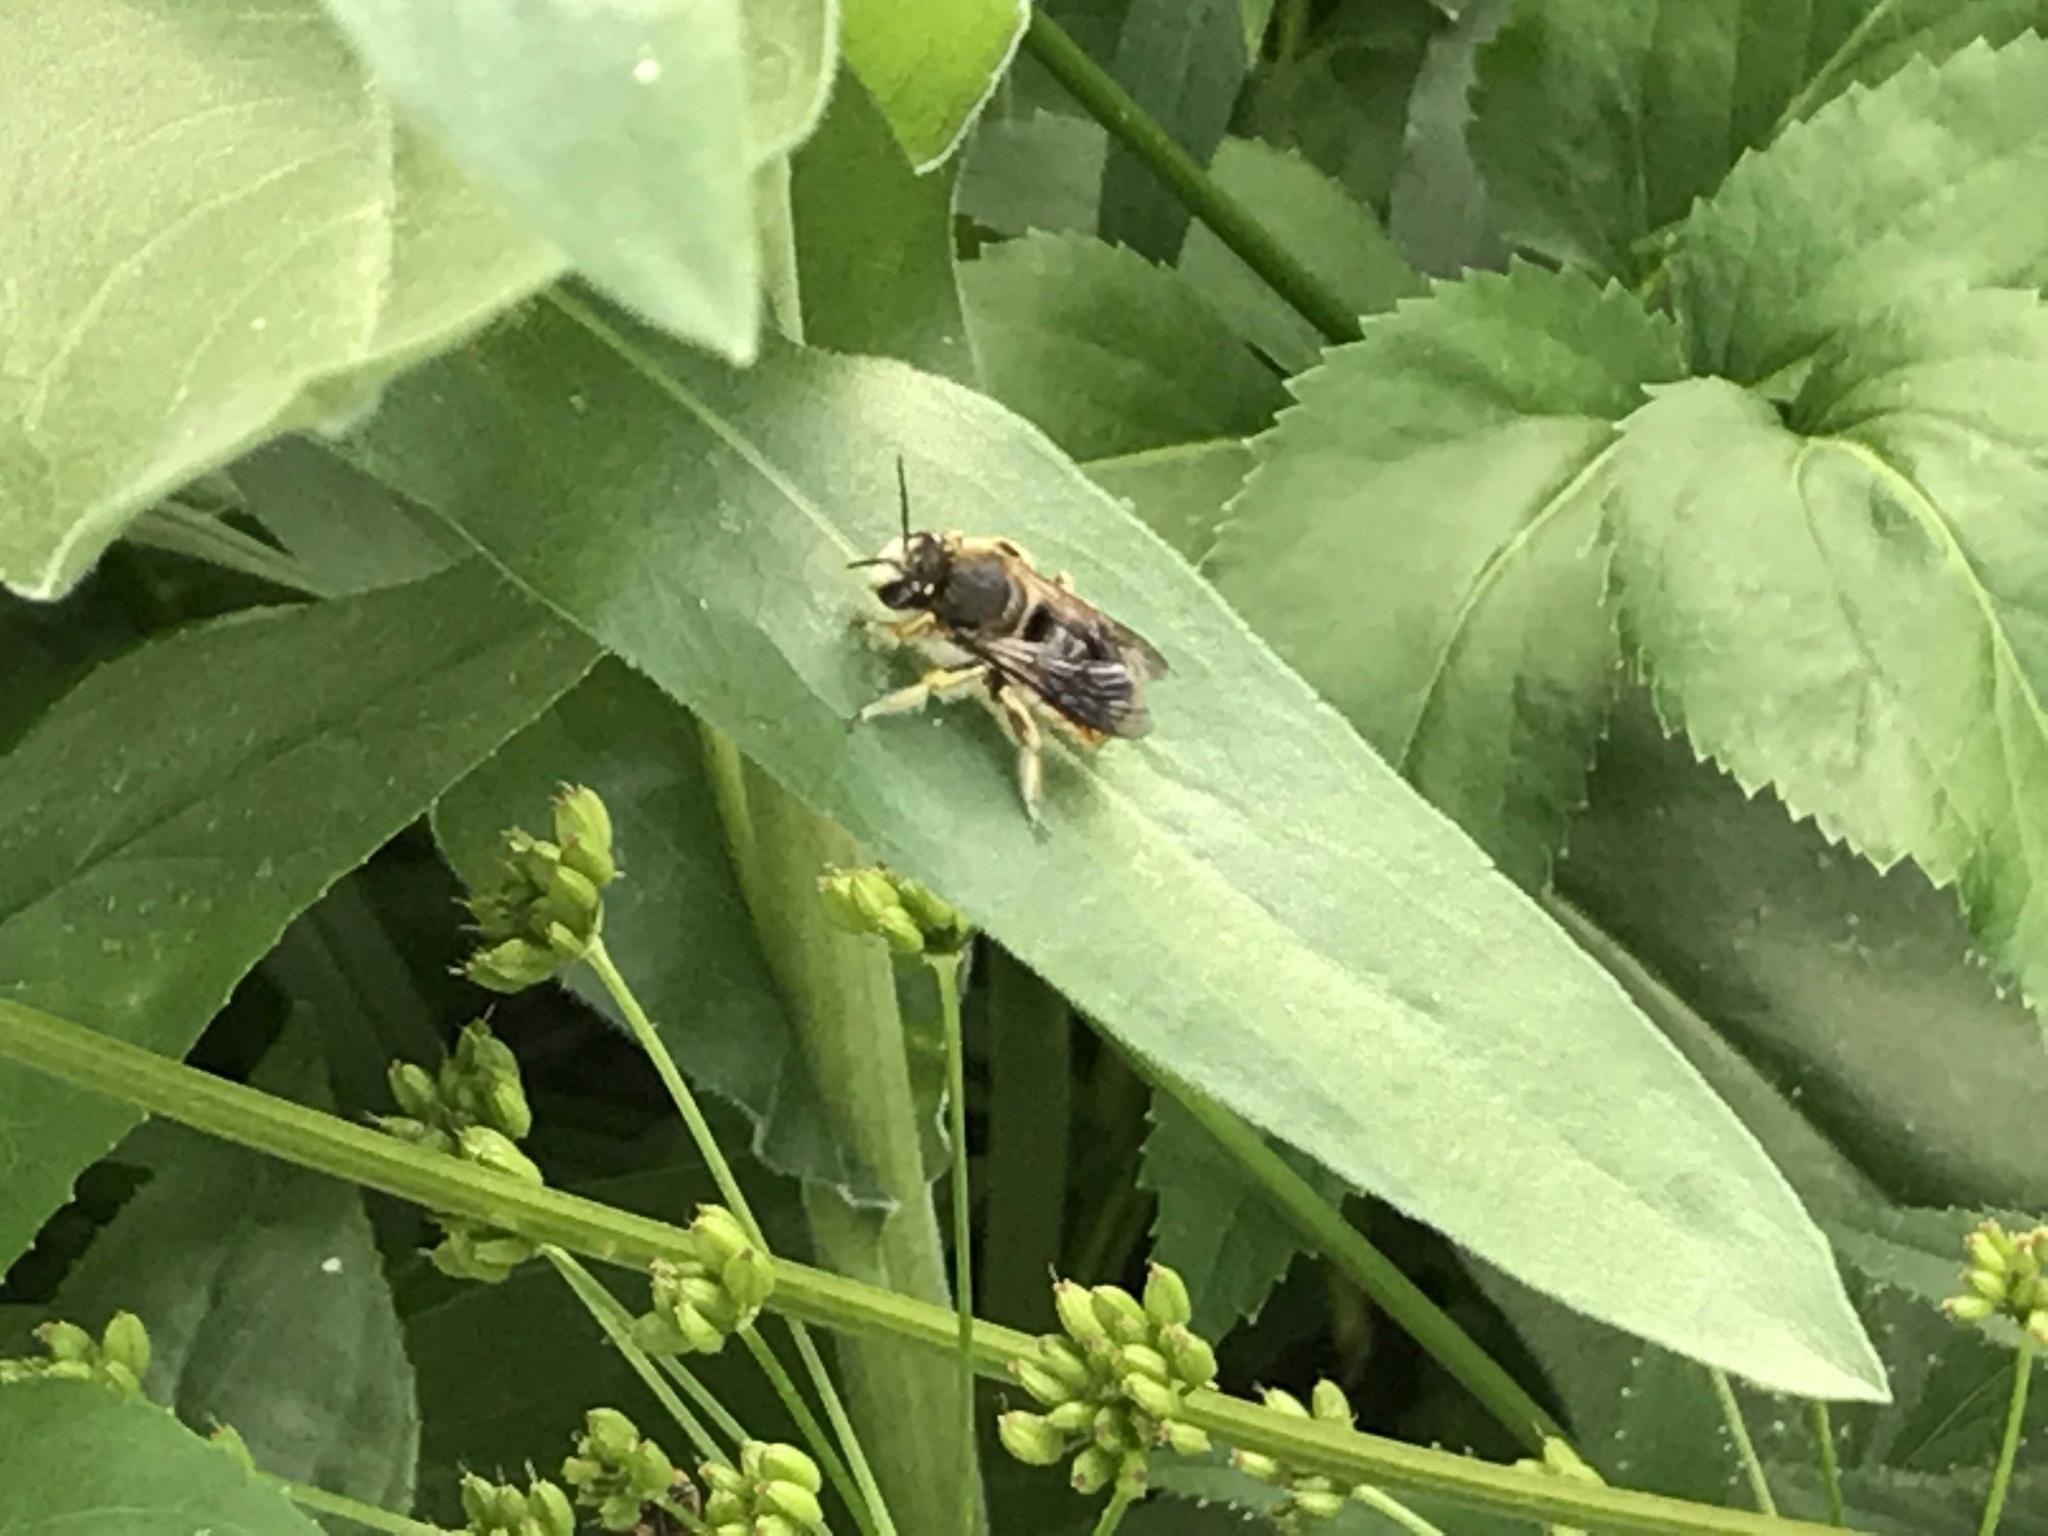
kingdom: Animalia
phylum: Arthropoda
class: Insecta
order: Hymenoptera
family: Megachilidae
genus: Anthidium
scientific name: Anthidium manicatum
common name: Wool carder bee
